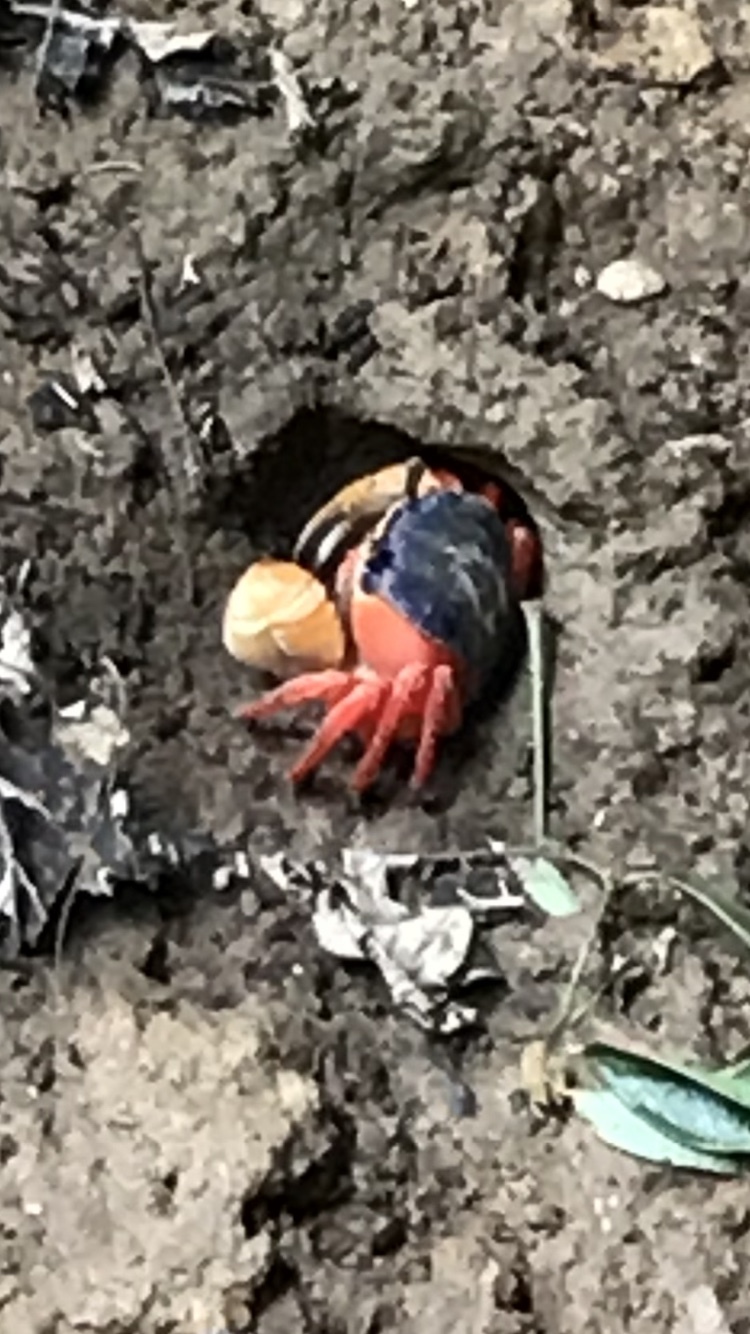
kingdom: Animalia
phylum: Arthropoda
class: Malacostraca
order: Decapoda
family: Gecarcinidae
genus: Cardisoma
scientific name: Cardisoma crassum
